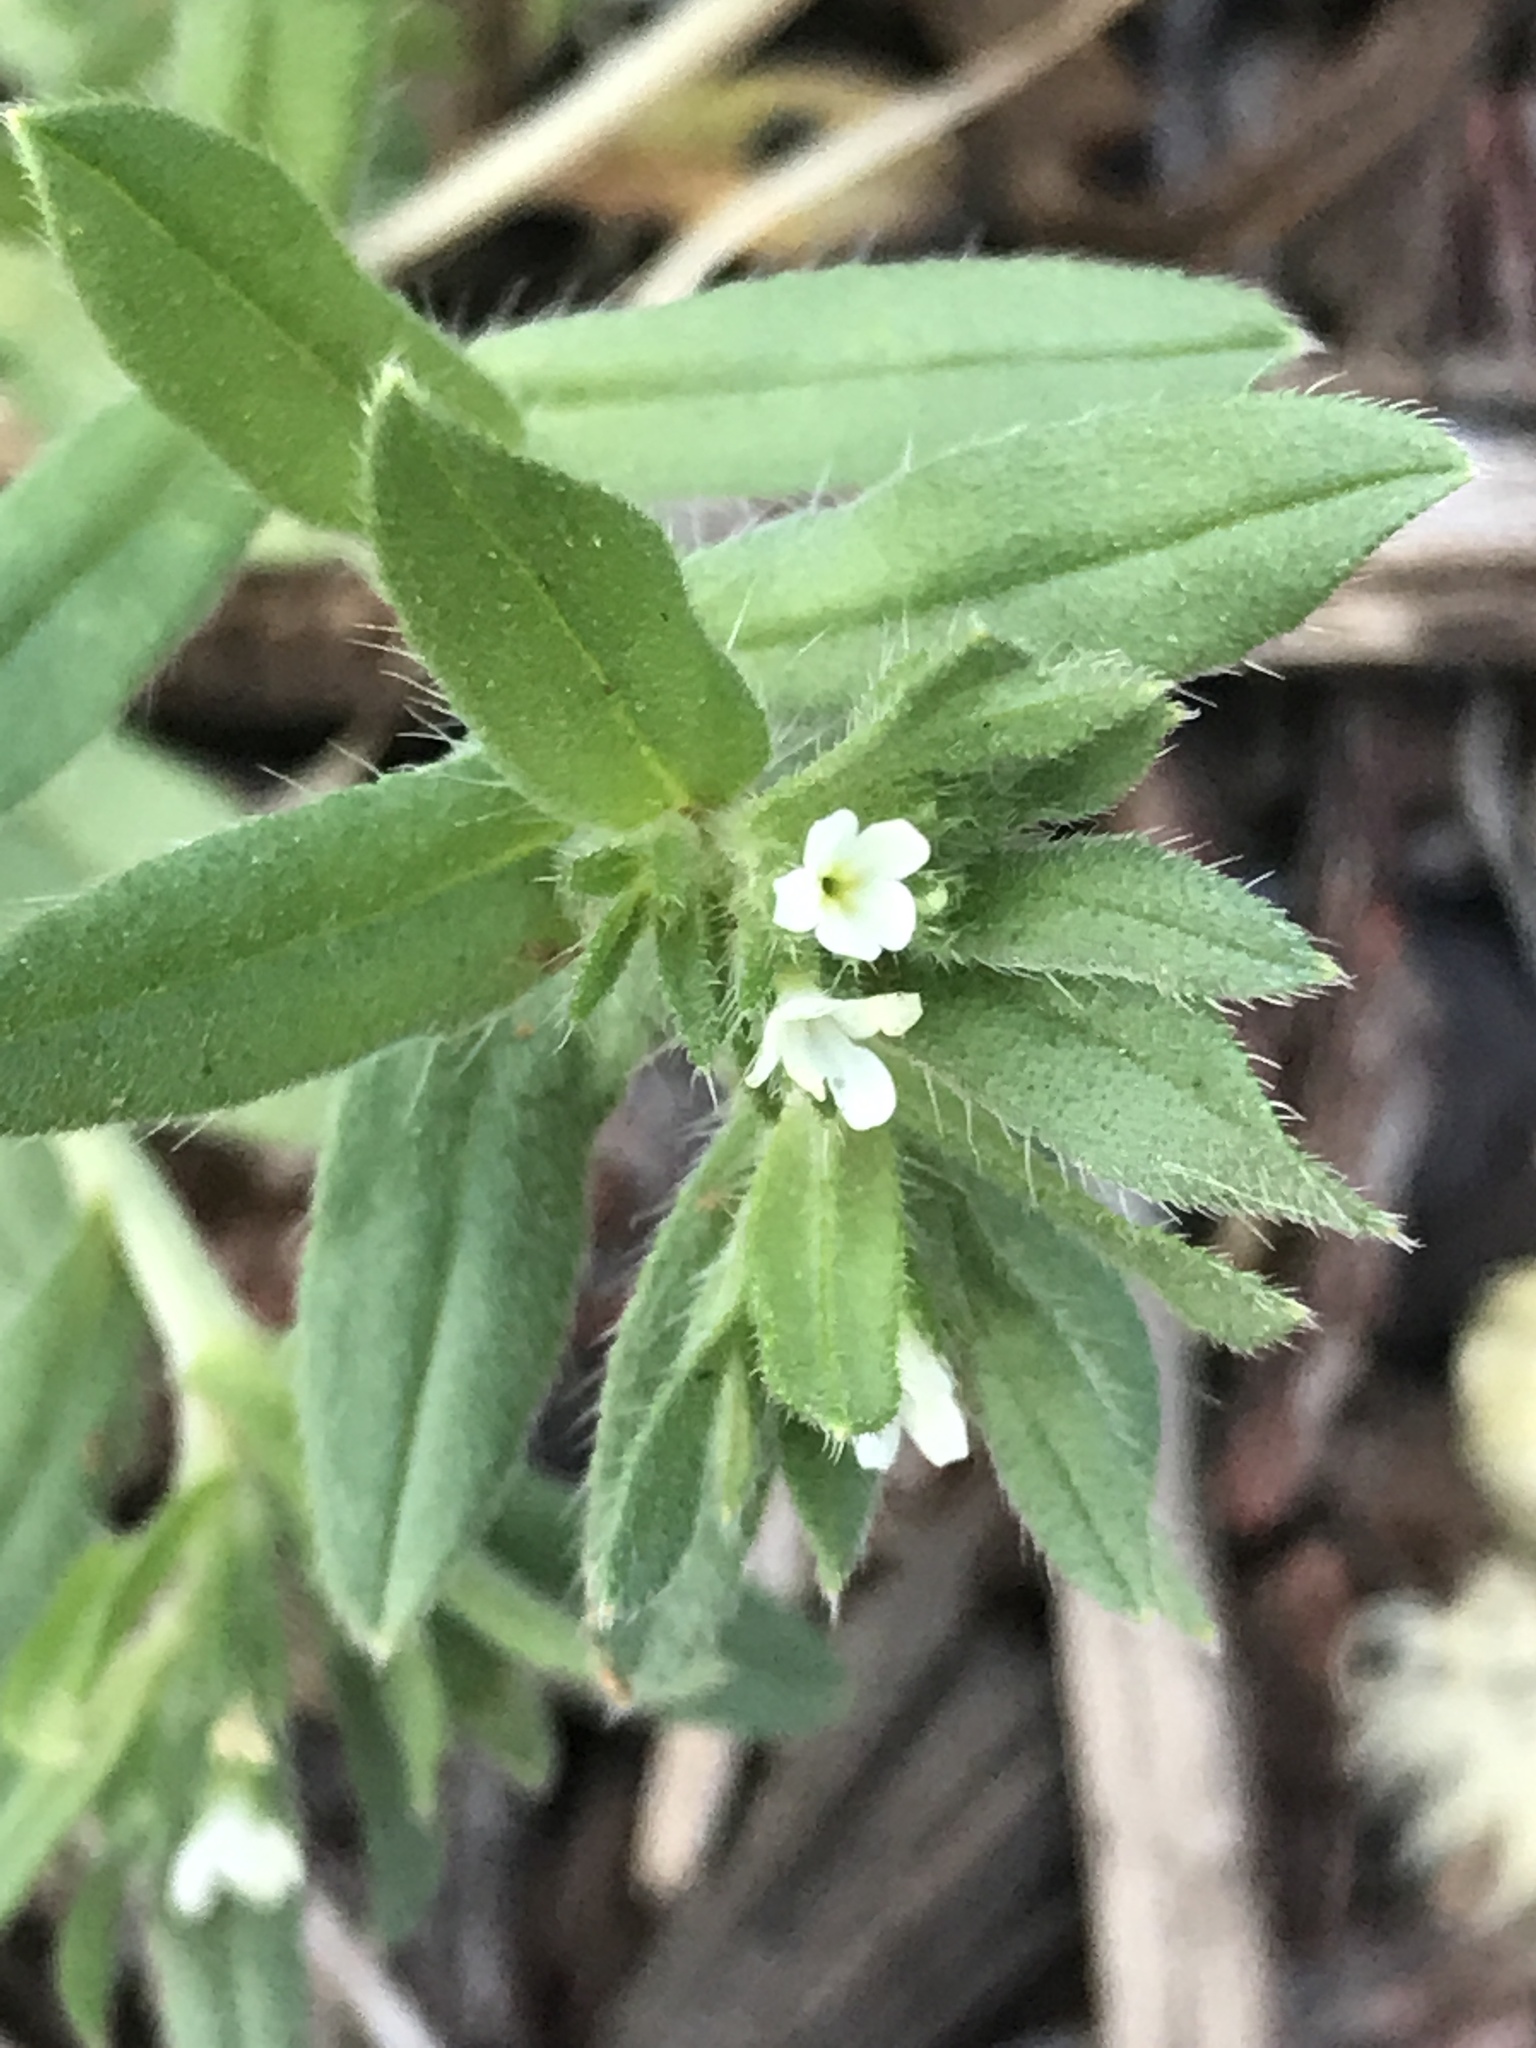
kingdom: Plantae
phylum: Tracheophyta
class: Magnoliopsida
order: Boraginales
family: Boraginaceae
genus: Buglossoides
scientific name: Buglossoides arvensis
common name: Corn gromwell
